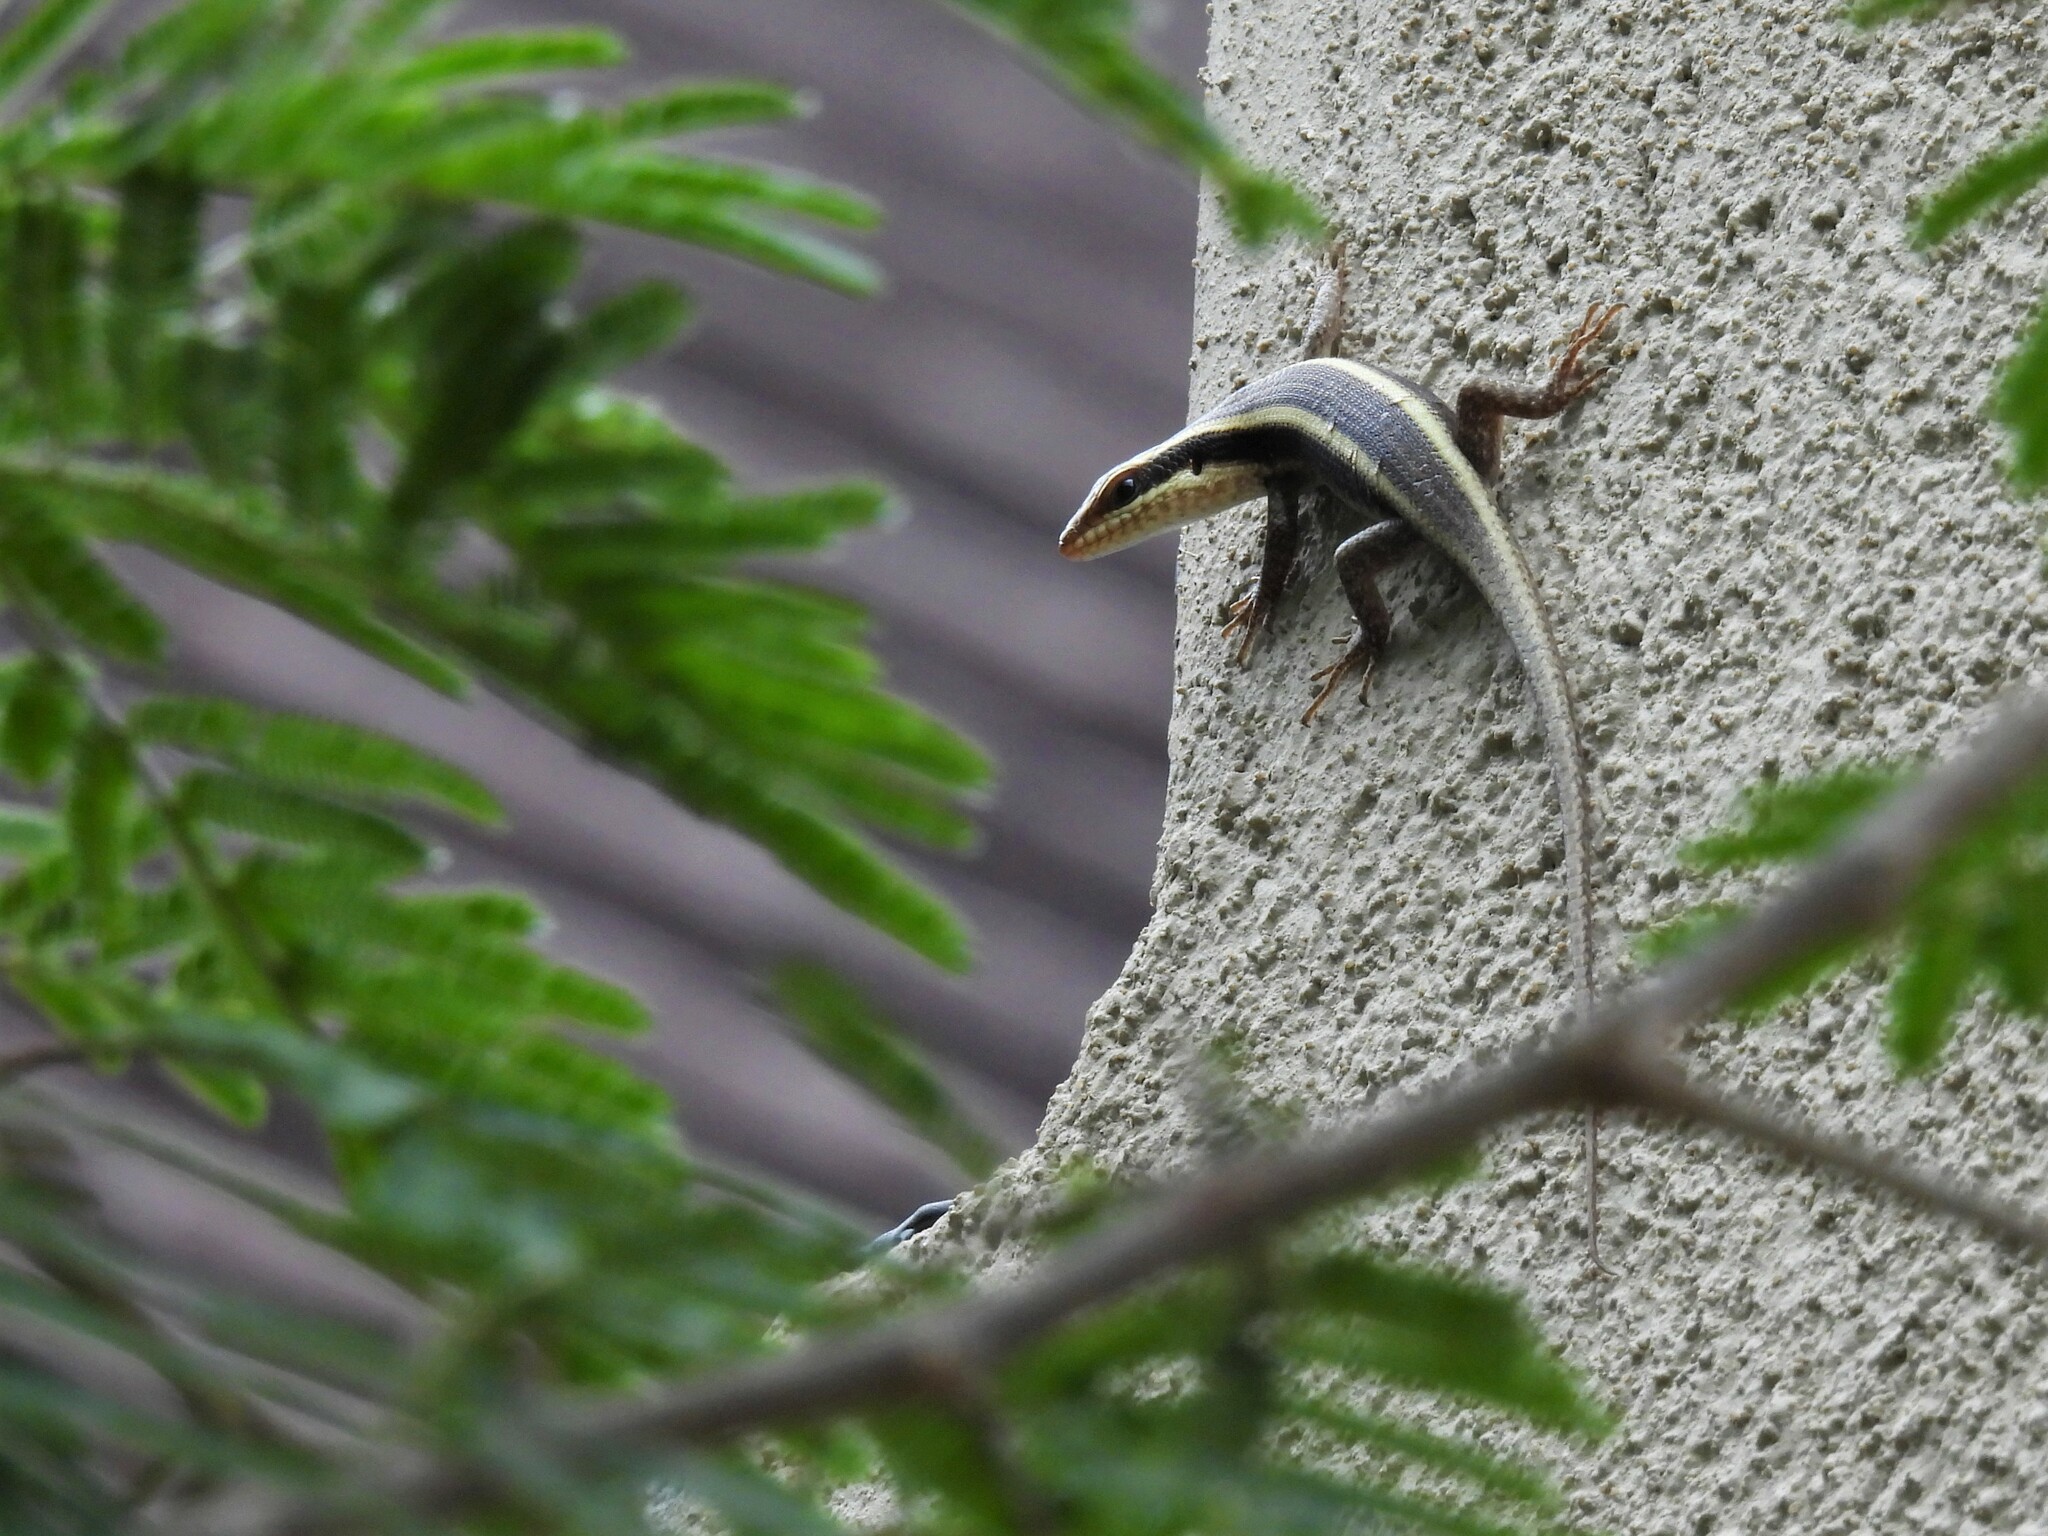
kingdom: Animalia
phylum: Chordata
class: Squamata
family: Scincidae
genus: Trachylepis
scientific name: Trachylepis striata
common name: African striped mabuya
